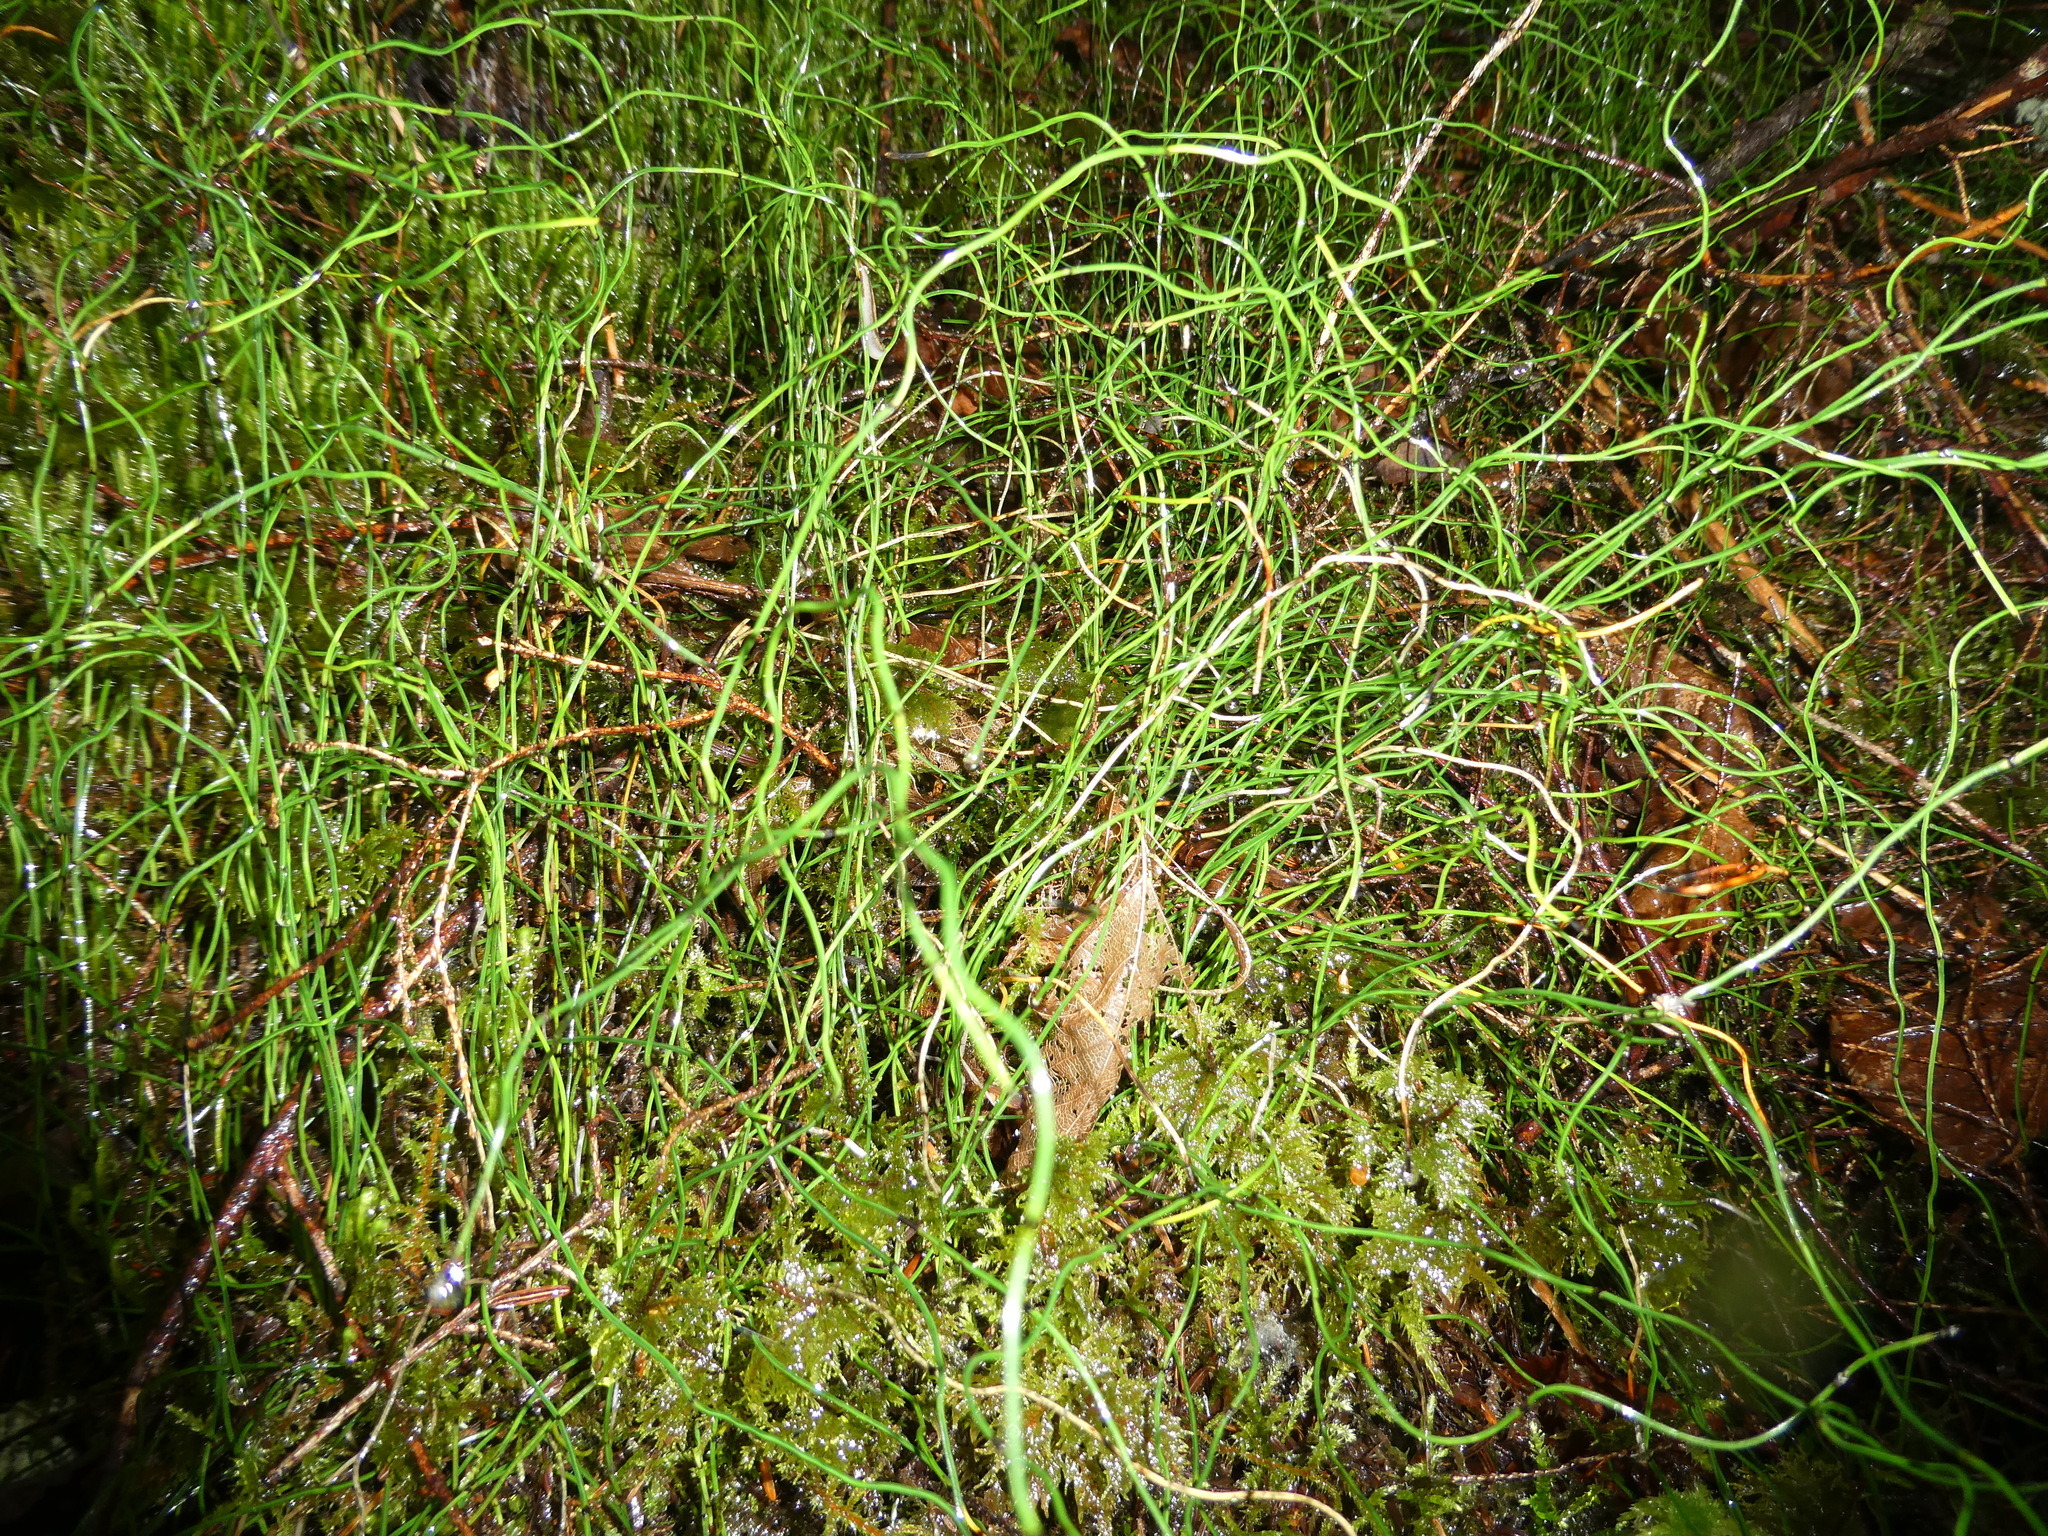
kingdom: Plantae
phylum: Tracheophyta
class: Polypodiopsida
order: Equisetales
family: Equisetaceae
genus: Equisetum
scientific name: Equisetum scirpoides
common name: Delicate horsetail
